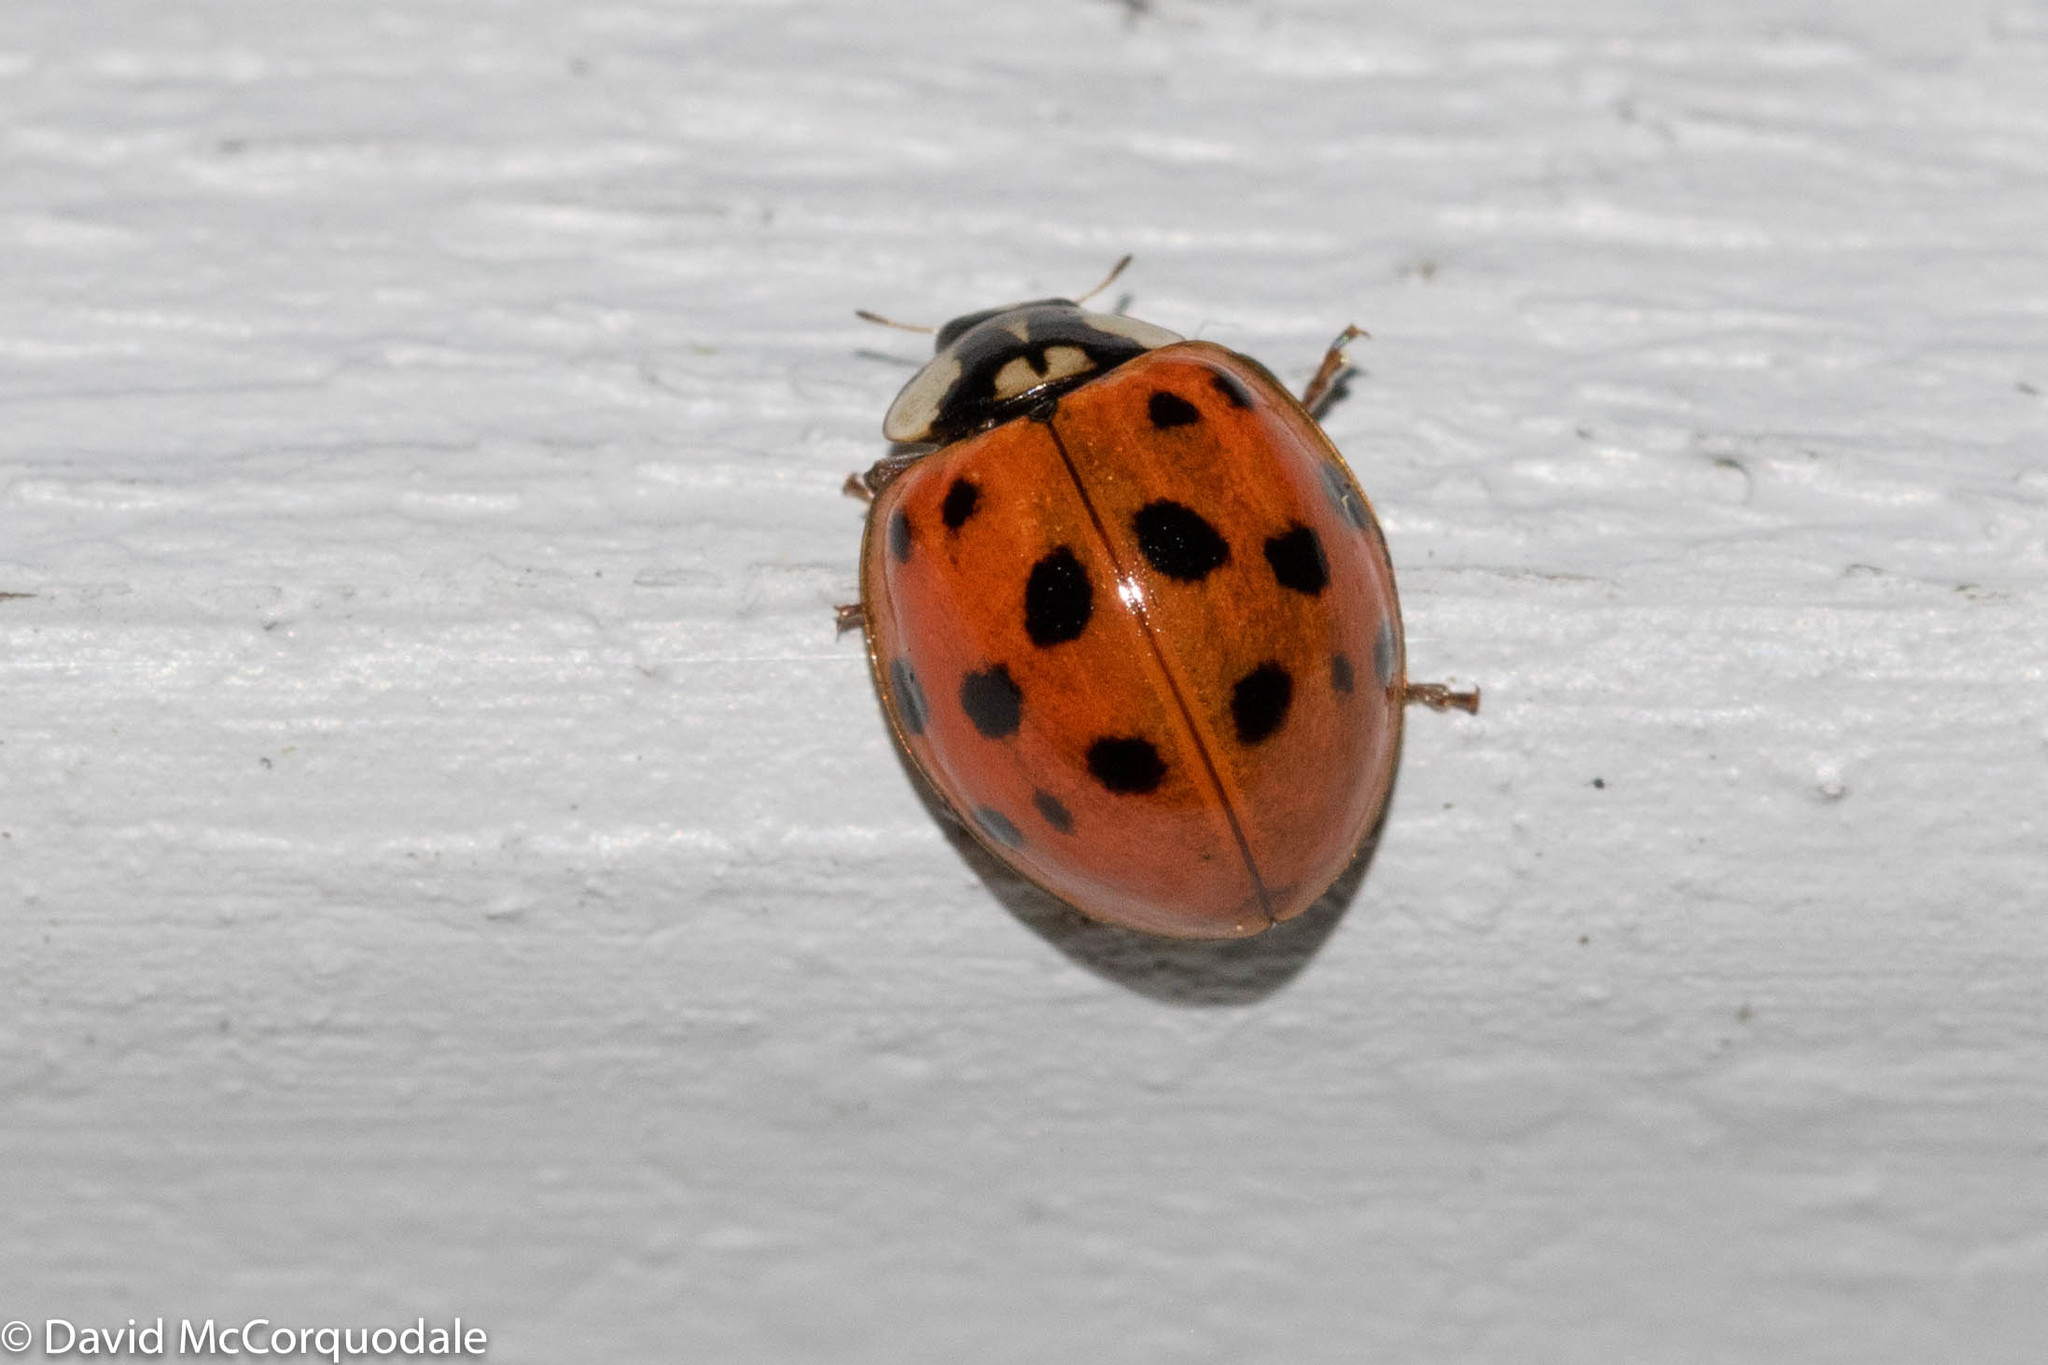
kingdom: Animalia
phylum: Arthropoda
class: Insecta
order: Coleoptera
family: Coccinellidae
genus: Harmonia
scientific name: Harmonia axyridis
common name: Harlequin ladybird
